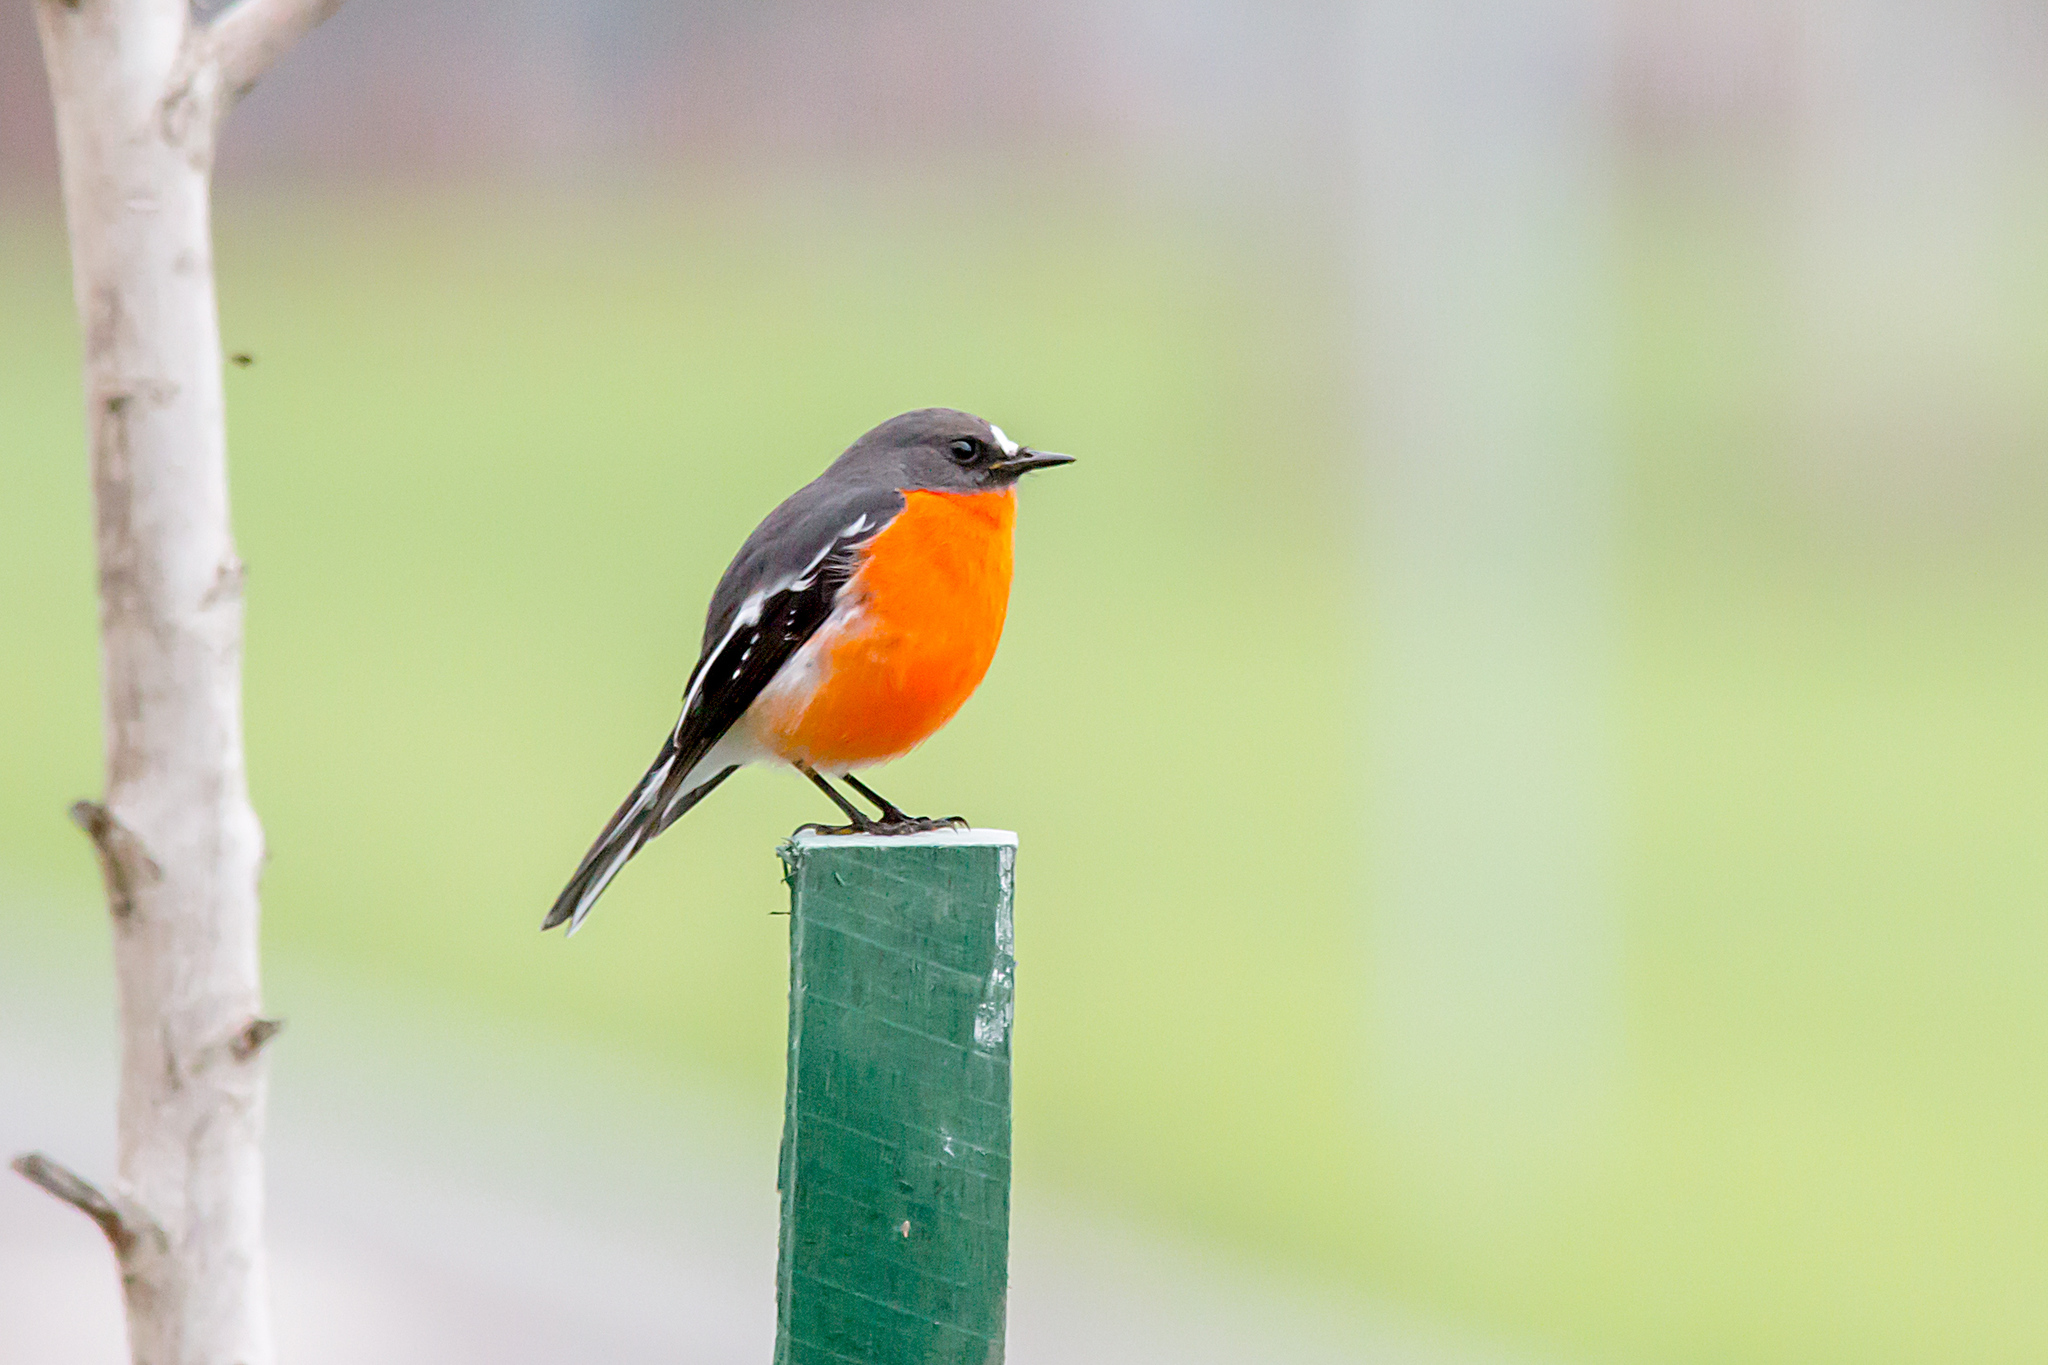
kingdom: Animalia
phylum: Chordata
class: Aves
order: Passeriformes
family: Petroicidae
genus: Petroica
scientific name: Petroica phoenicea
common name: Flame robin
